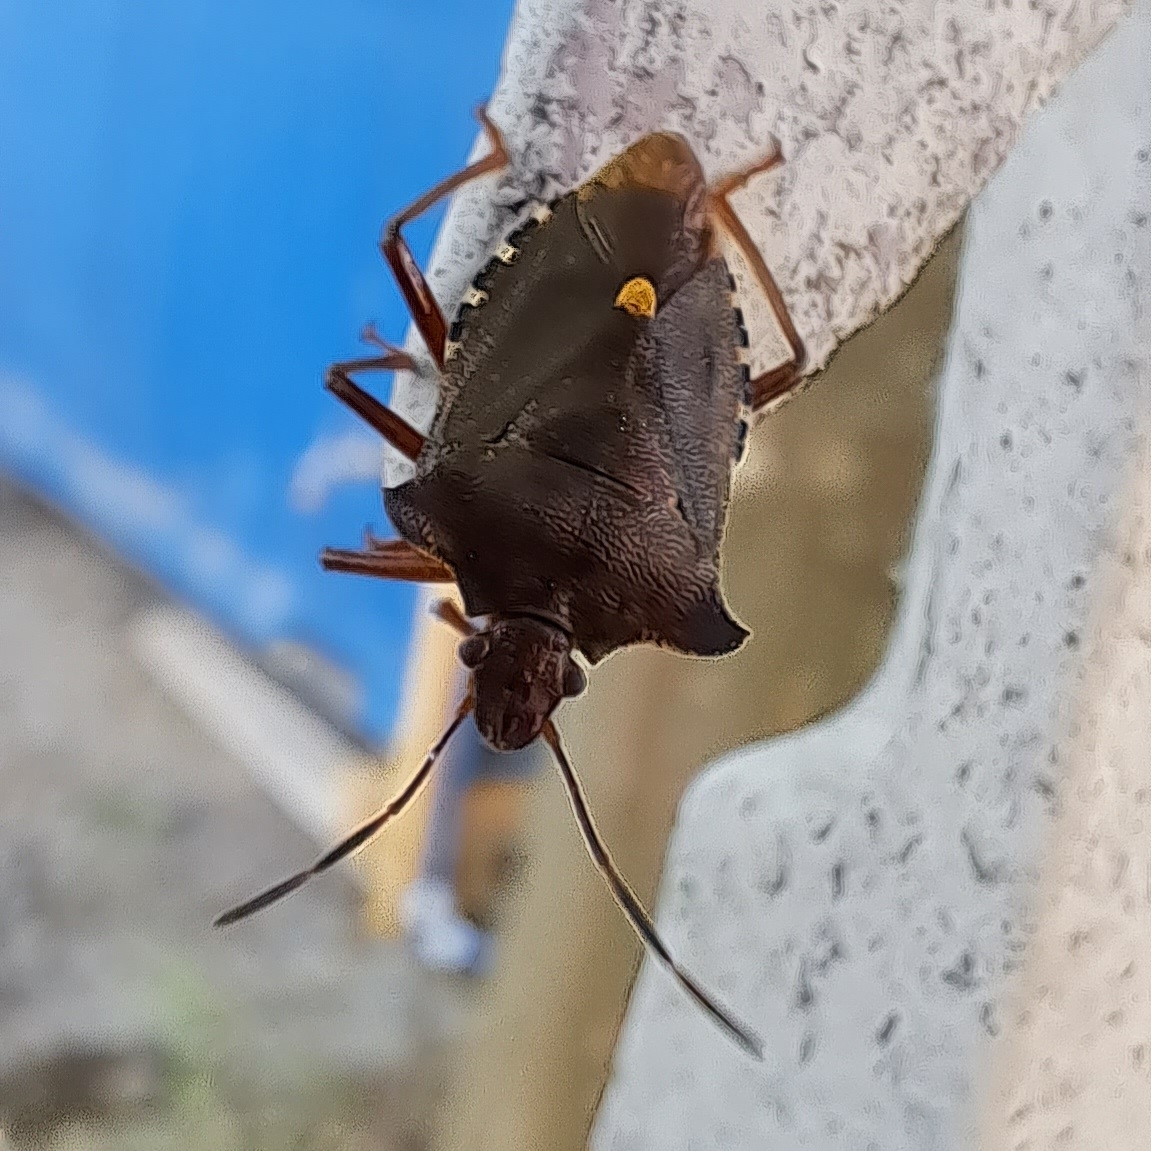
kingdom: Animalia
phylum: Arthropoda
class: Insecta
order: Hemiptera
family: Pentatomidae
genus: Pentatoma
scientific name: Pentatoma rufipes
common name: Forest bug
